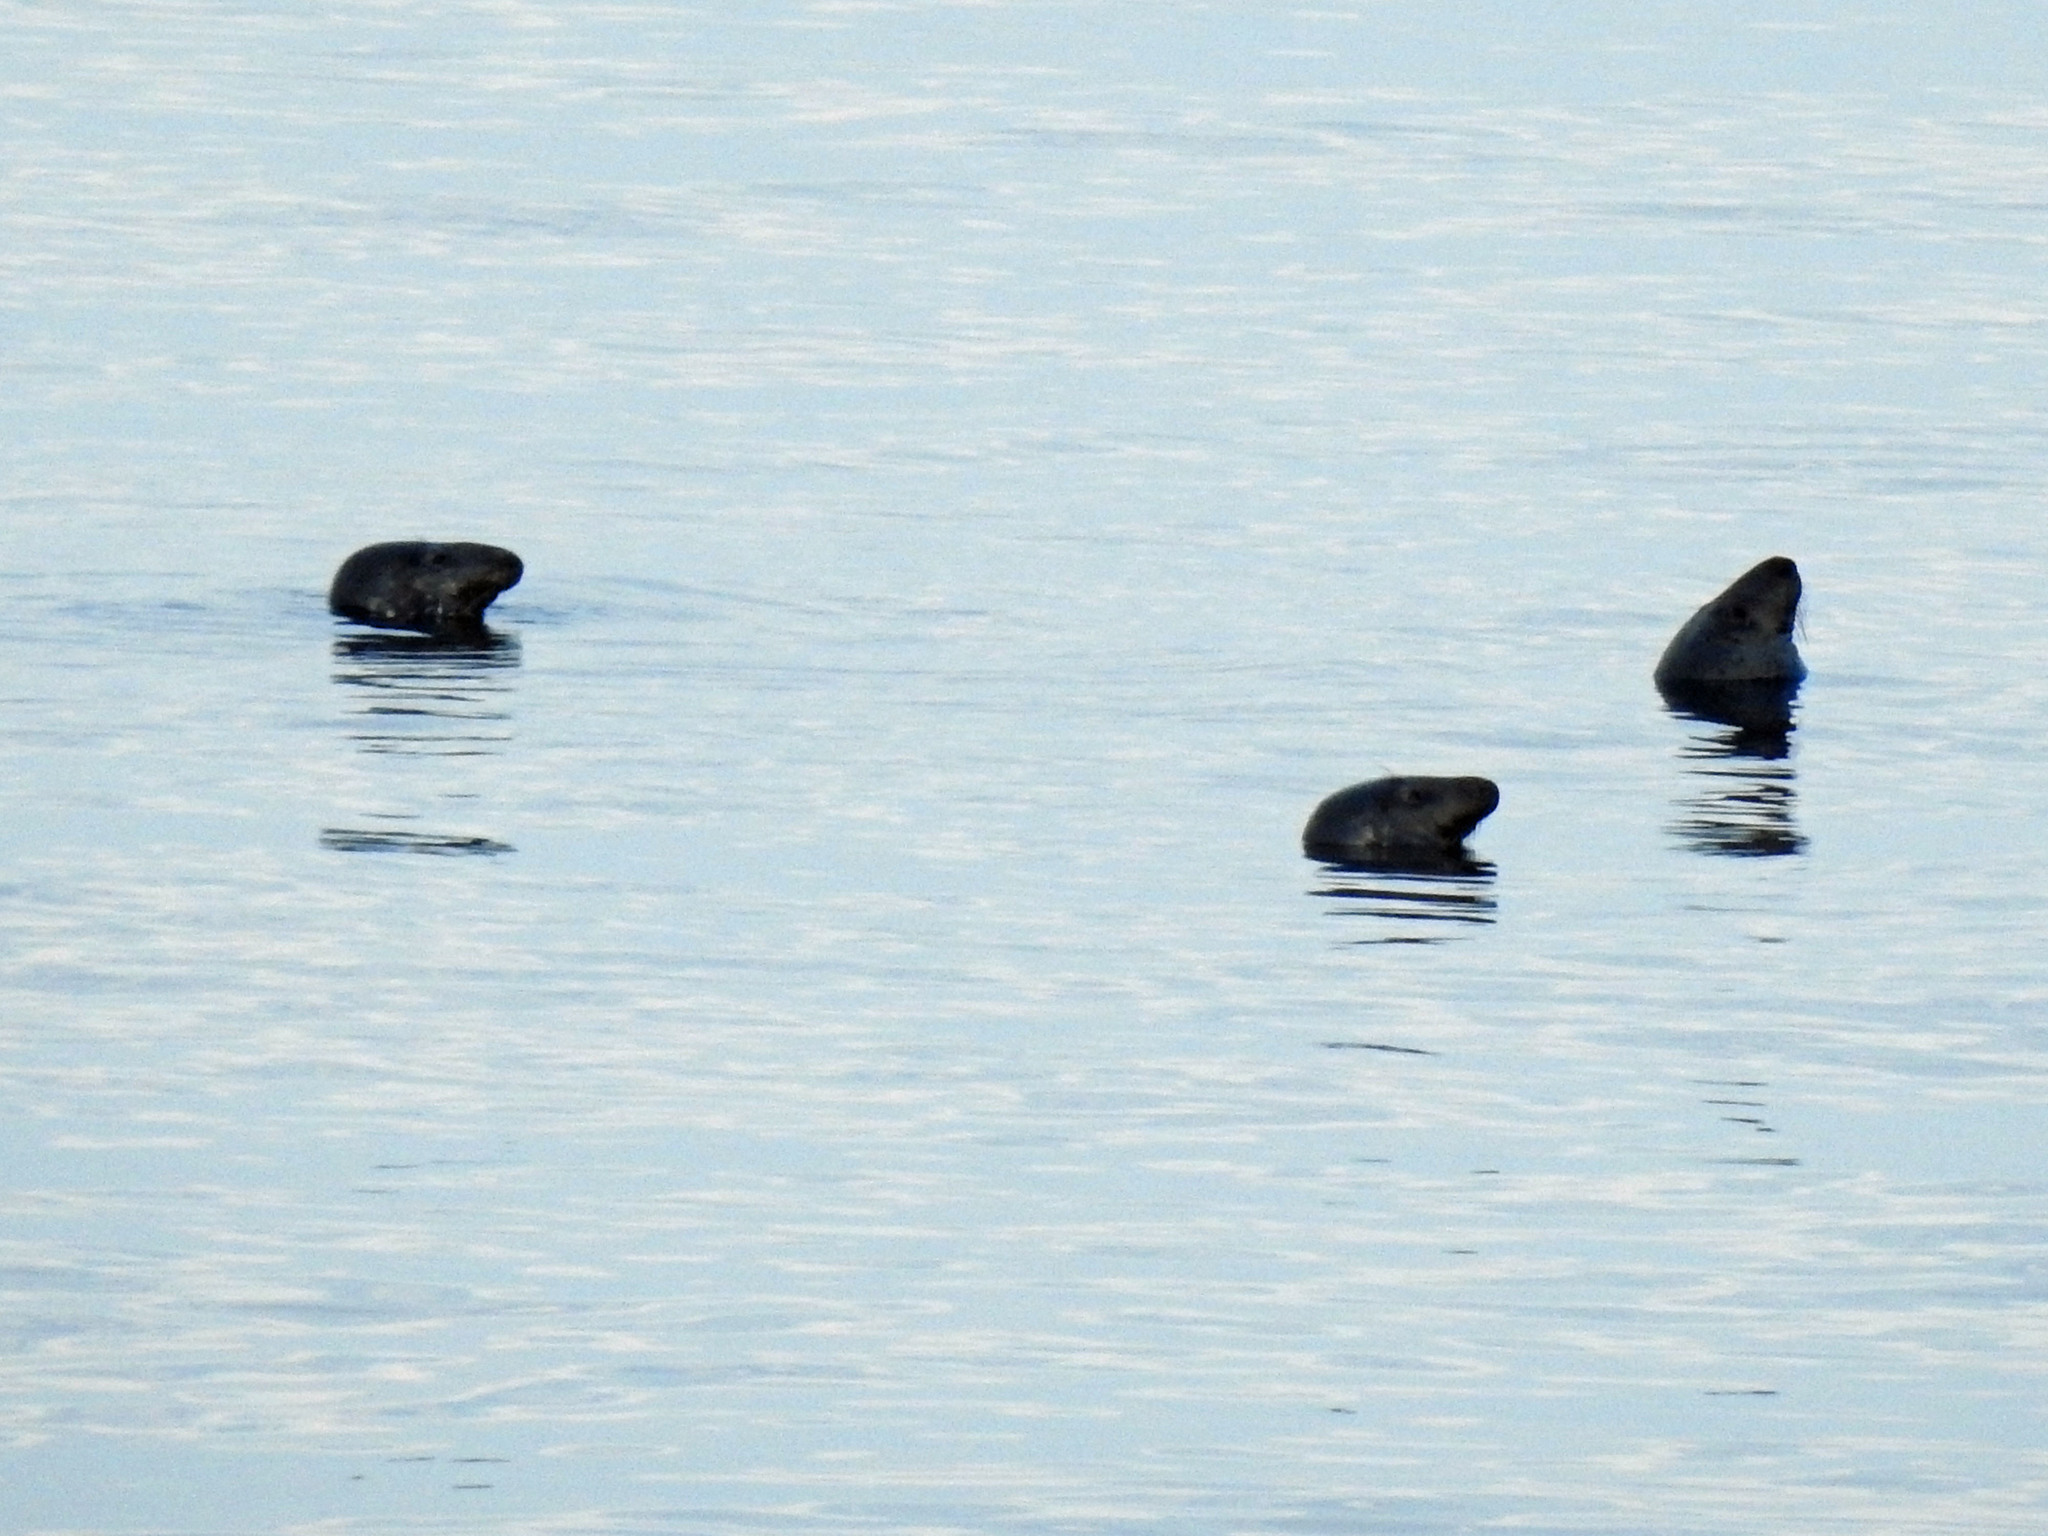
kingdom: Animalia
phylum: Chordata
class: Mammalia
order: Carnivora
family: Phocidae
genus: Halichoerus
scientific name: Halichoerus grypus
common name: Grey seal
